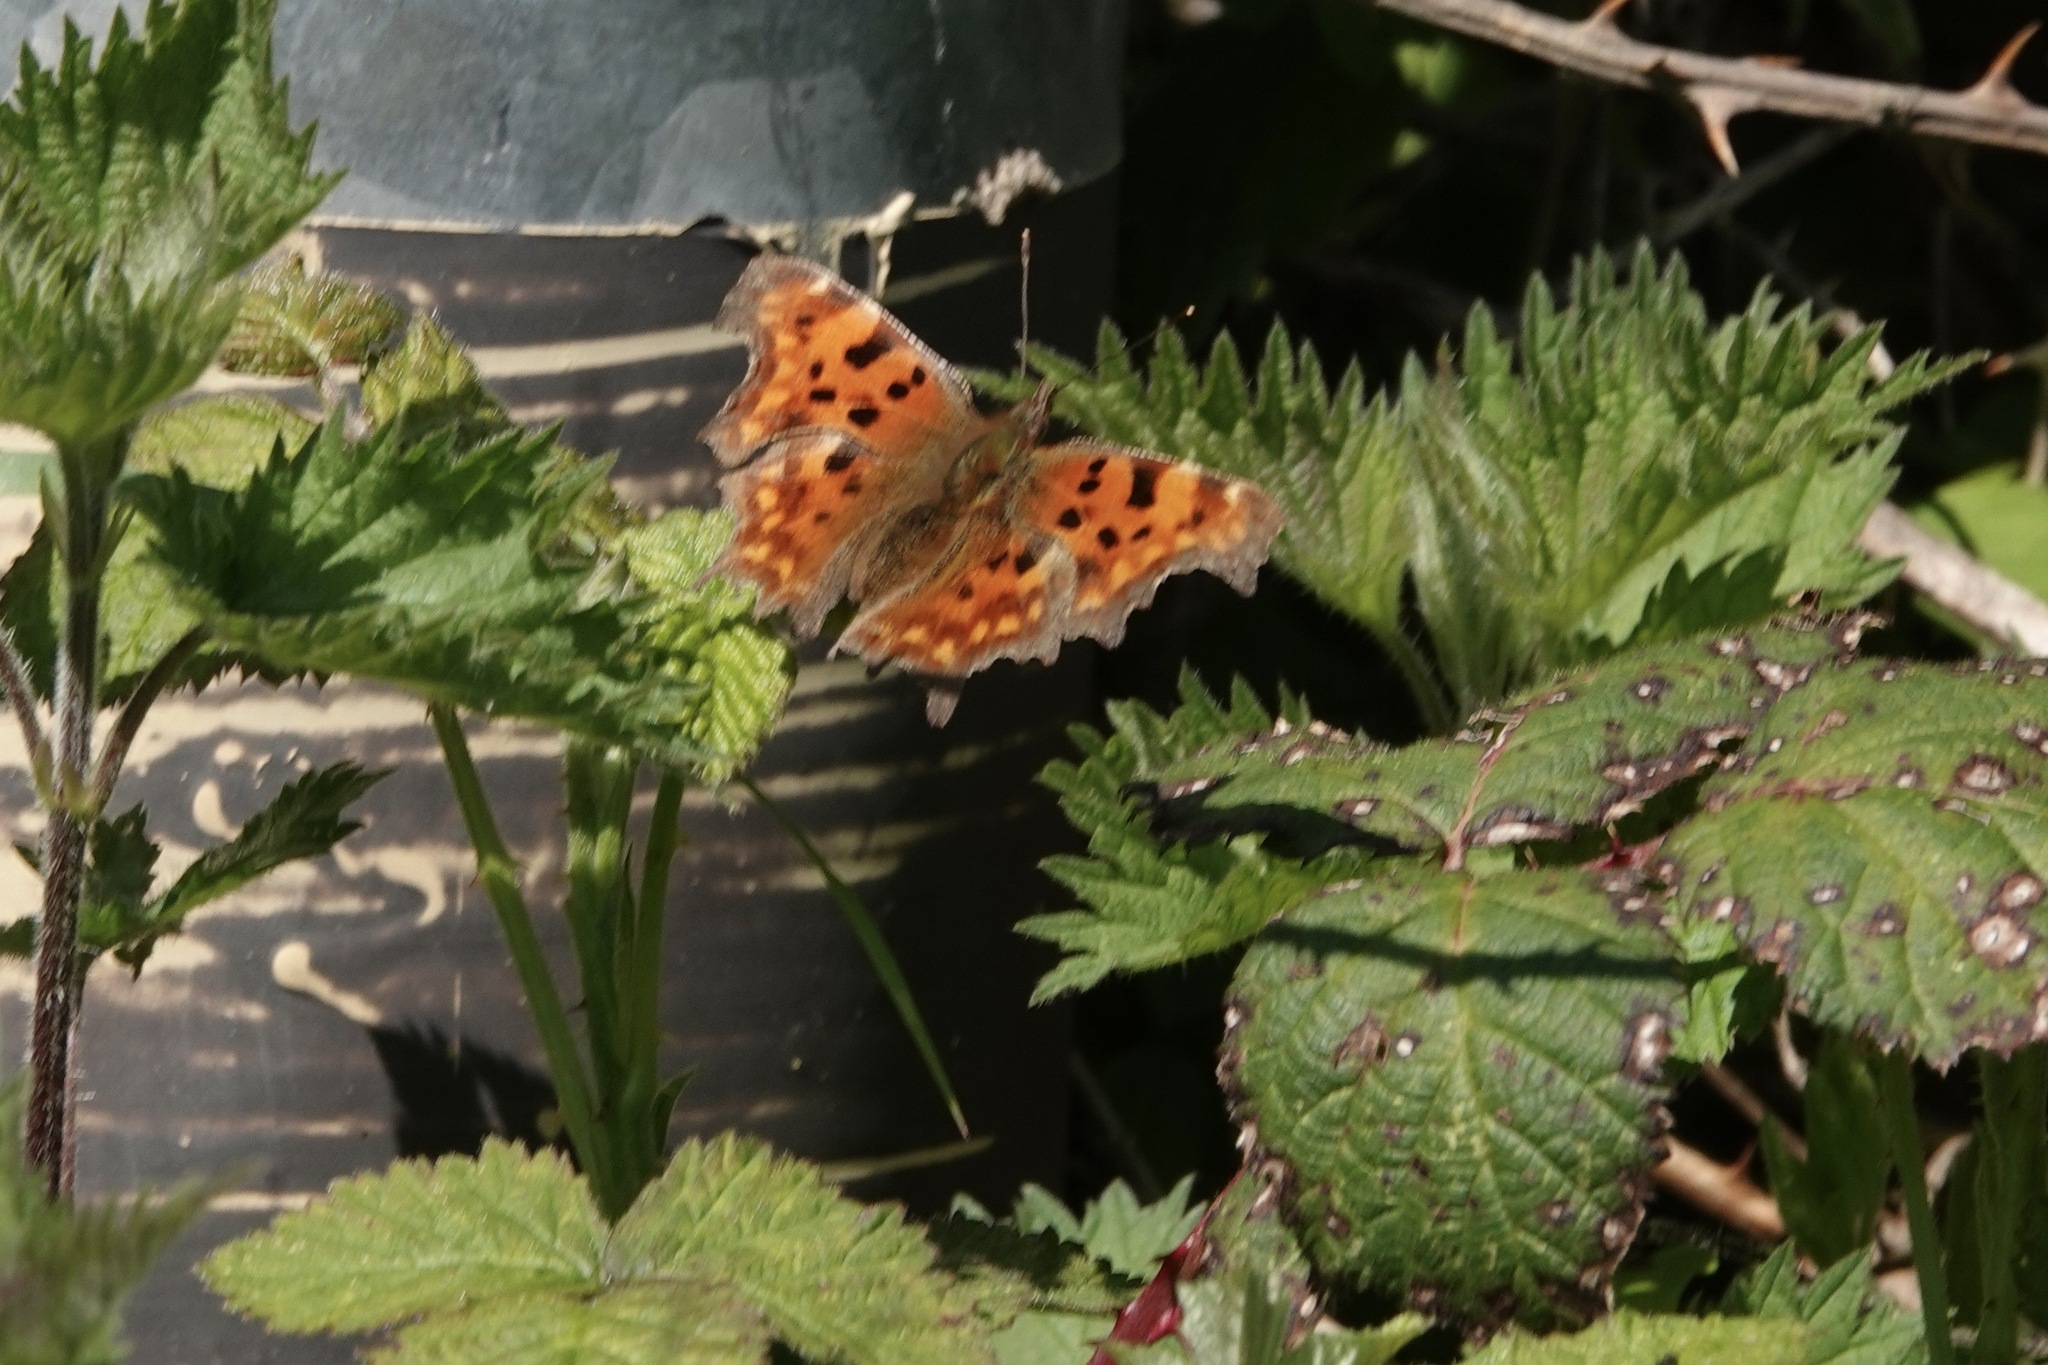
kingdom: Animalia
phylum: Arthropoda
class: Insecta
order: Lepidoptera
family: Nymphalidae
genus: Polygonia
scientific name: Polygonia c-album
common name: Comma
